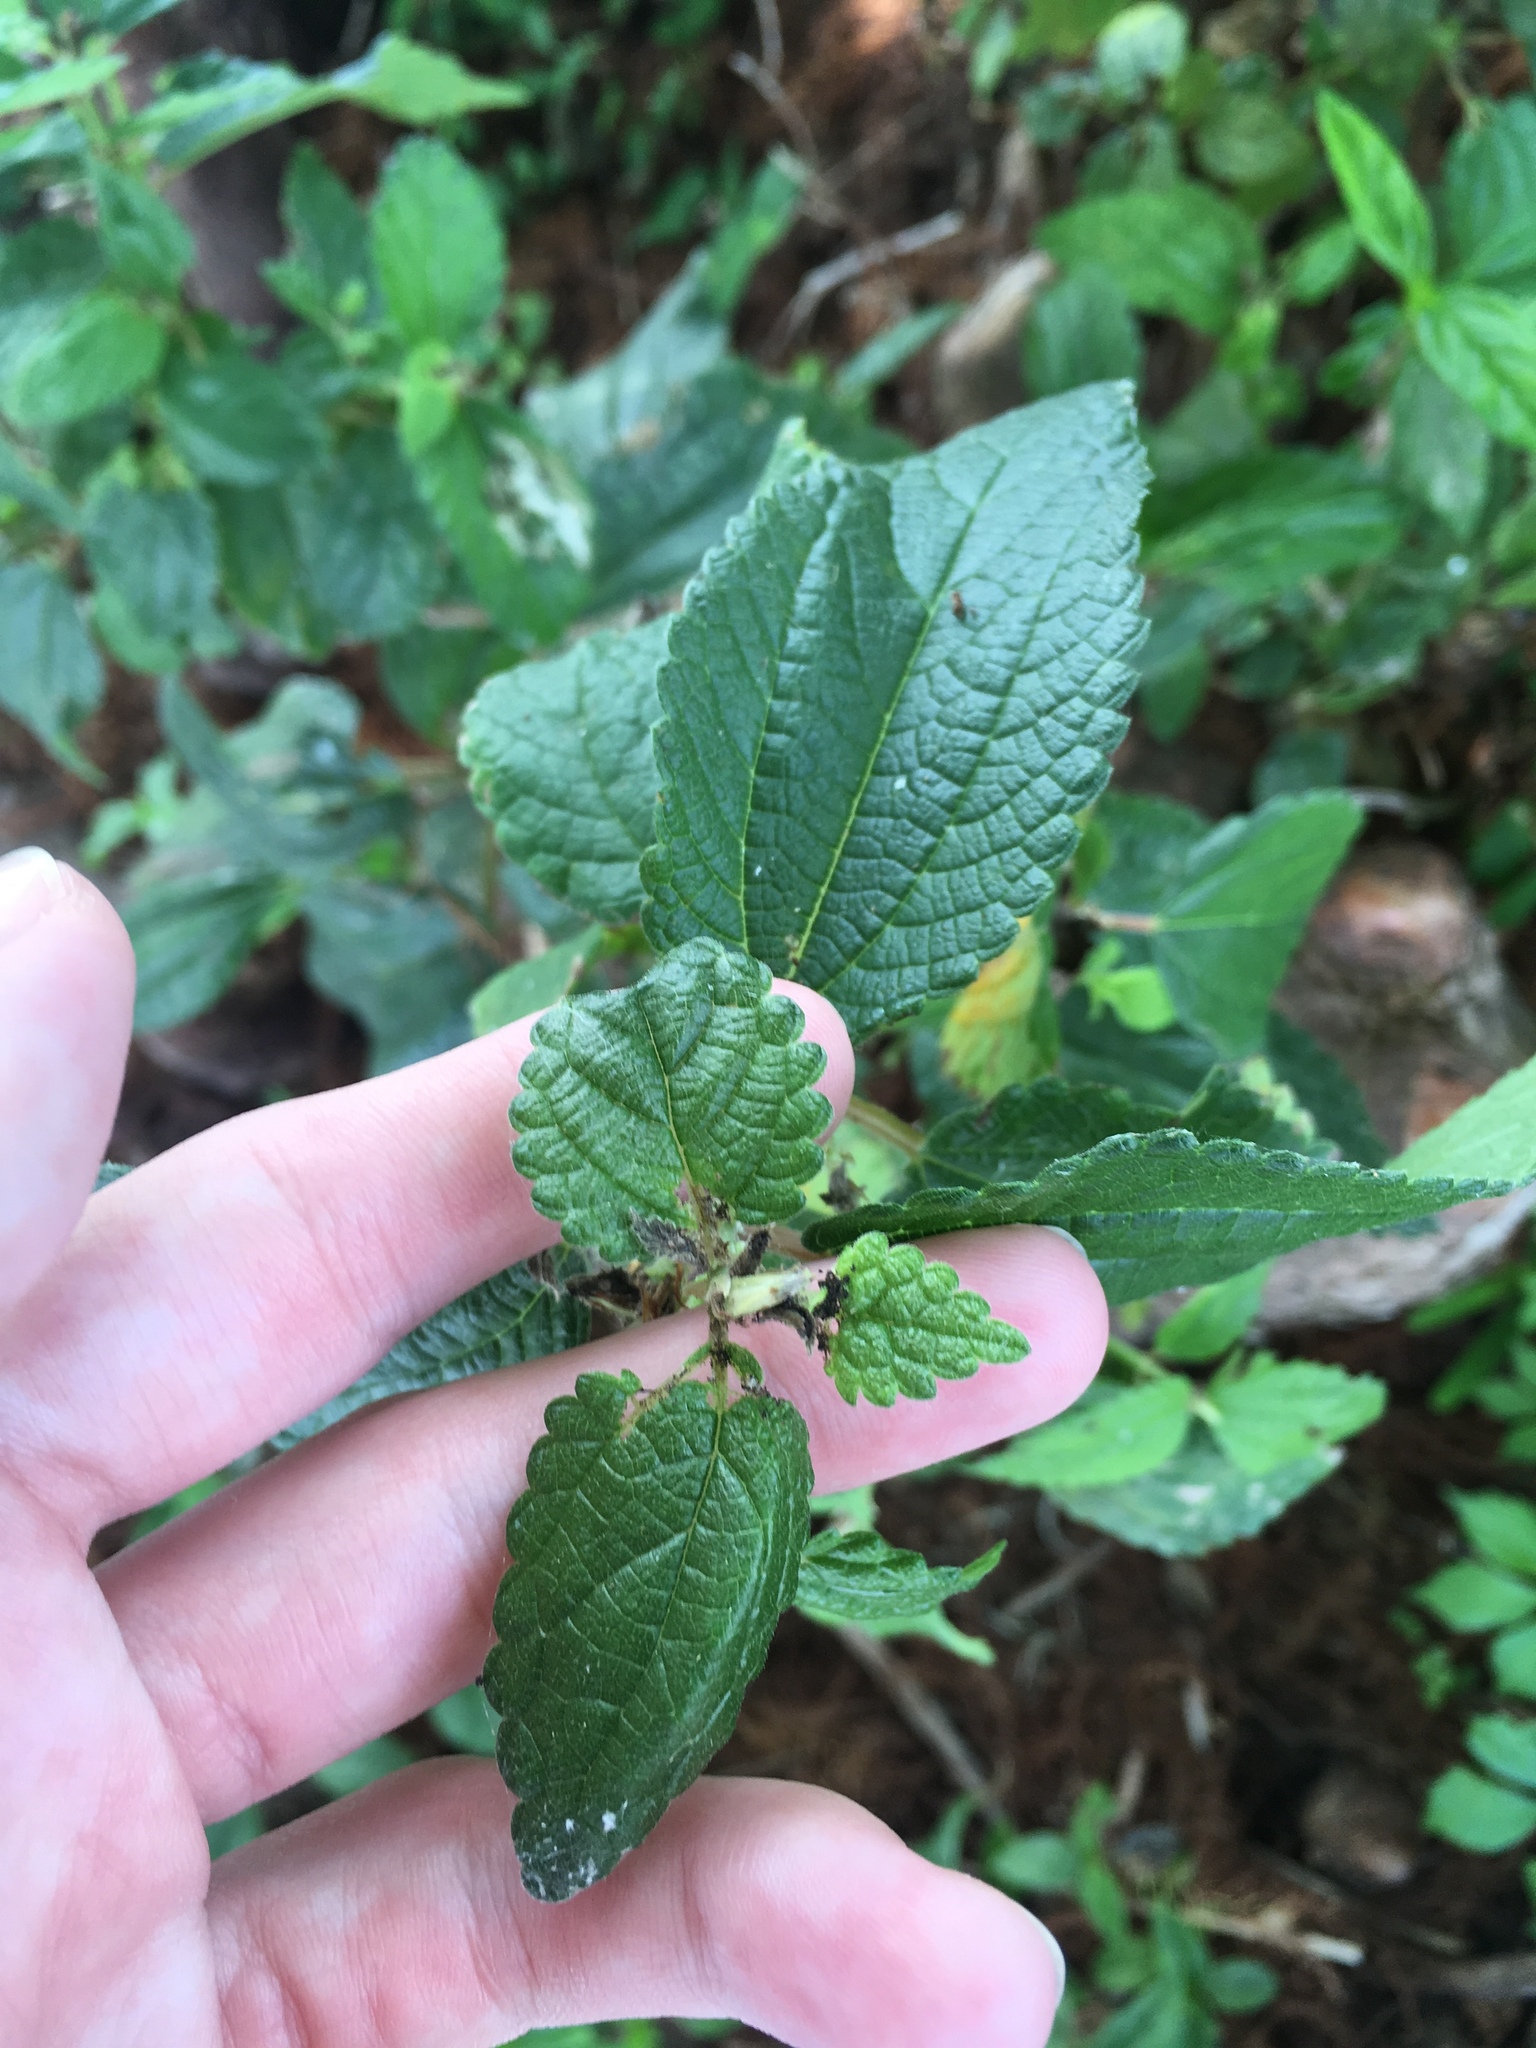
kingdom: Plantae
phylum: Tracheophyta
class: Magnoliopsida
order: Rosales
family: Urticaceae
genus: Boehmeria
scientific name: Boehmeria cylindrica
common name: Bog-hemp
